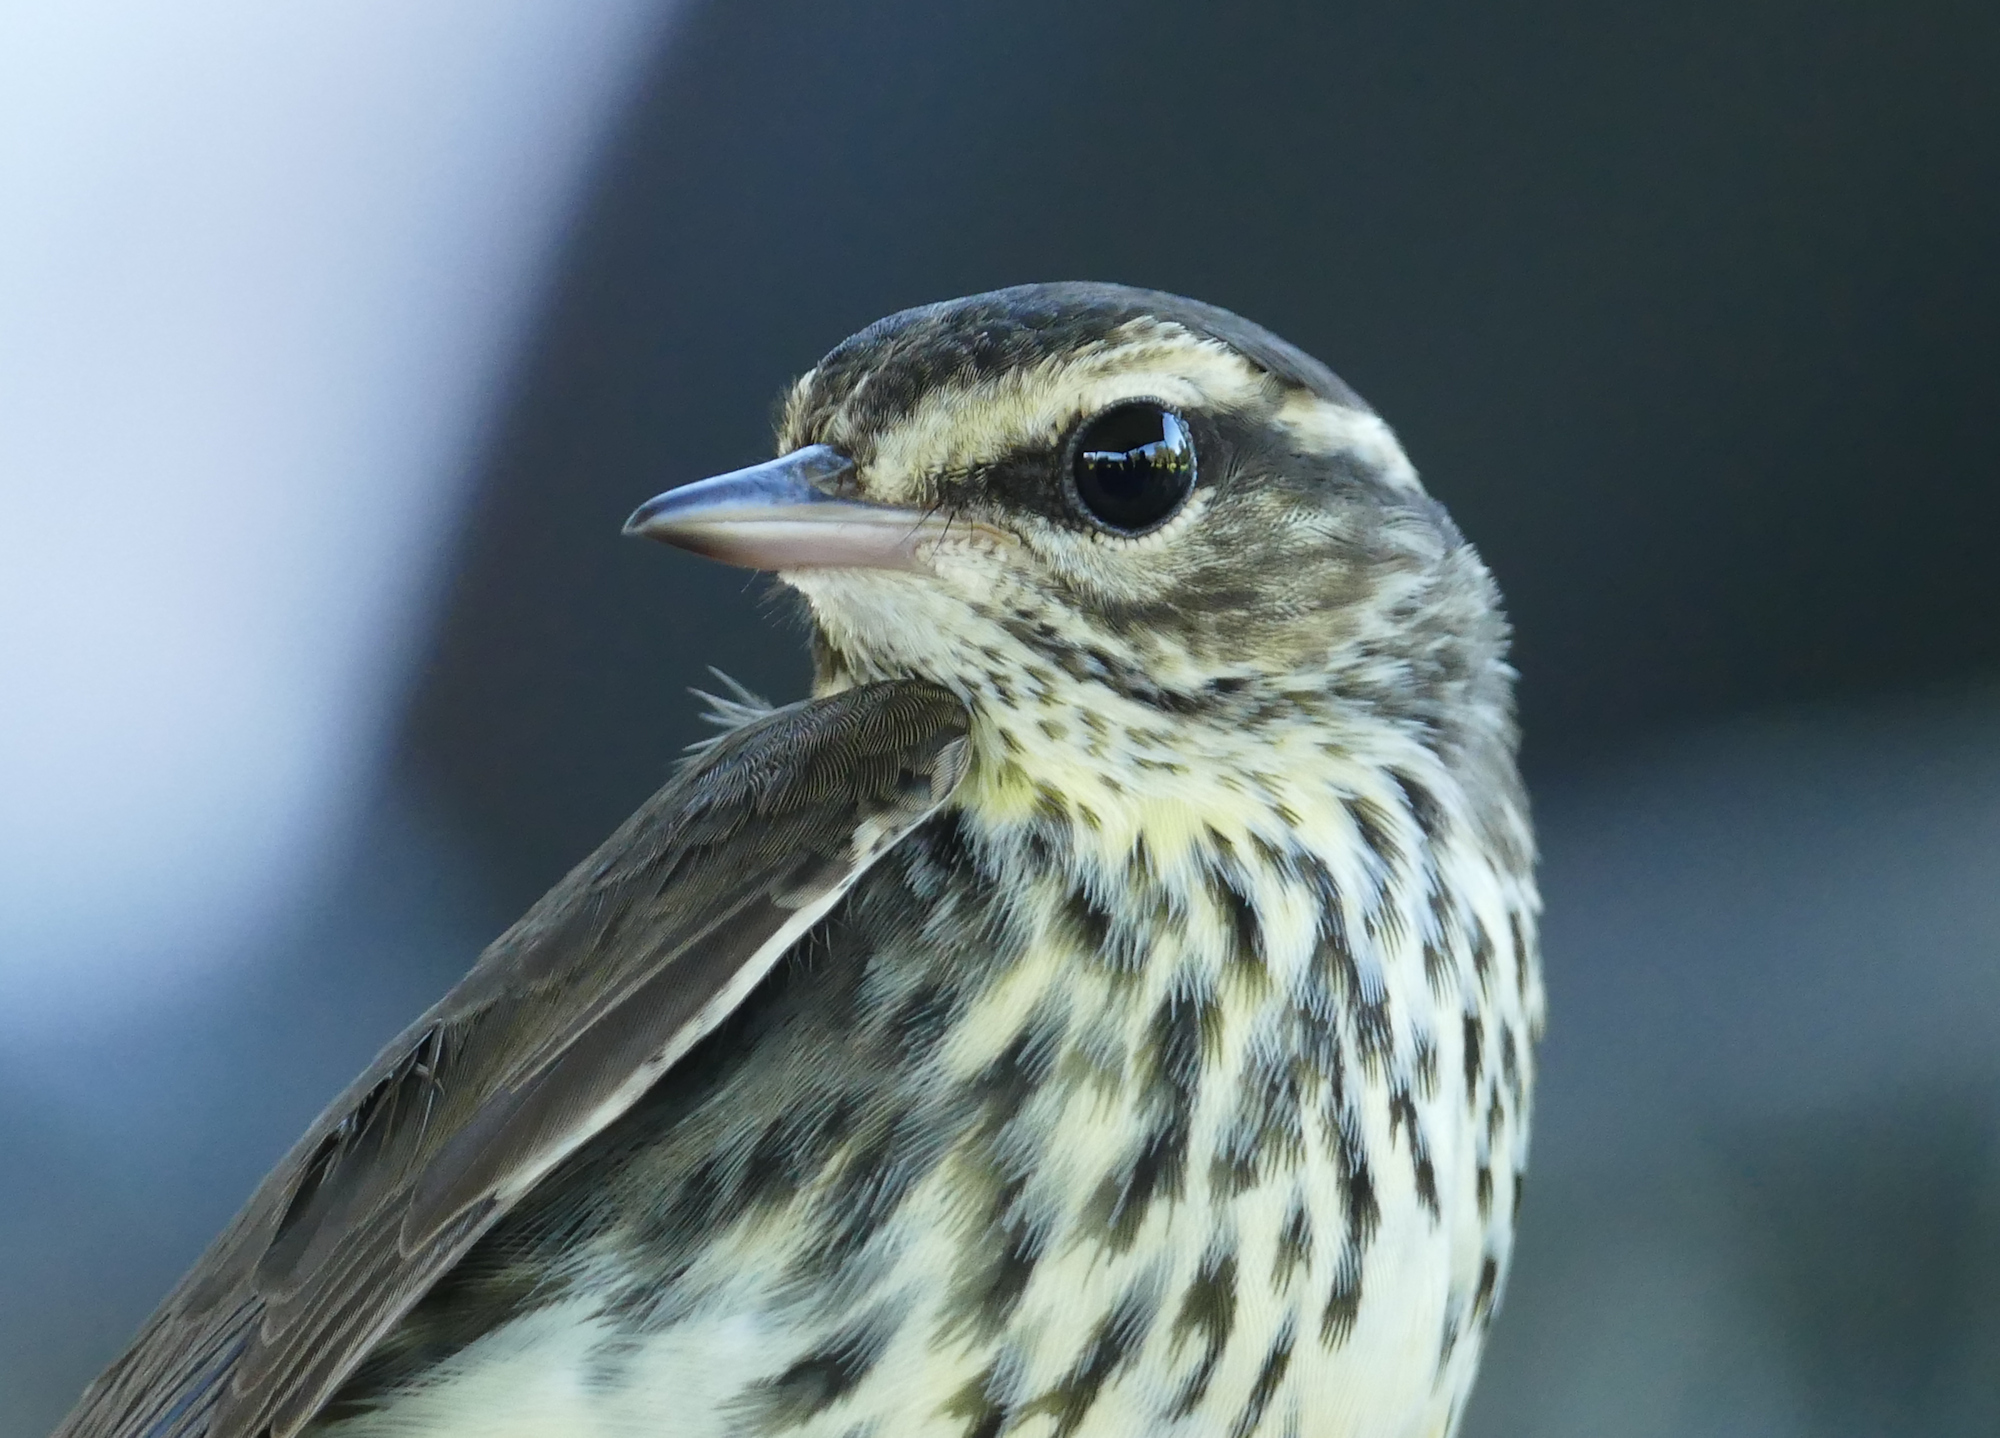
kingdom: Animalia
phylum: Chordata
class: Aves
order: Passeriformes
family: Parulidae
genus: Parkesia
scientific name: Parkesia noveboracensis
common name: Northern waterthrush
